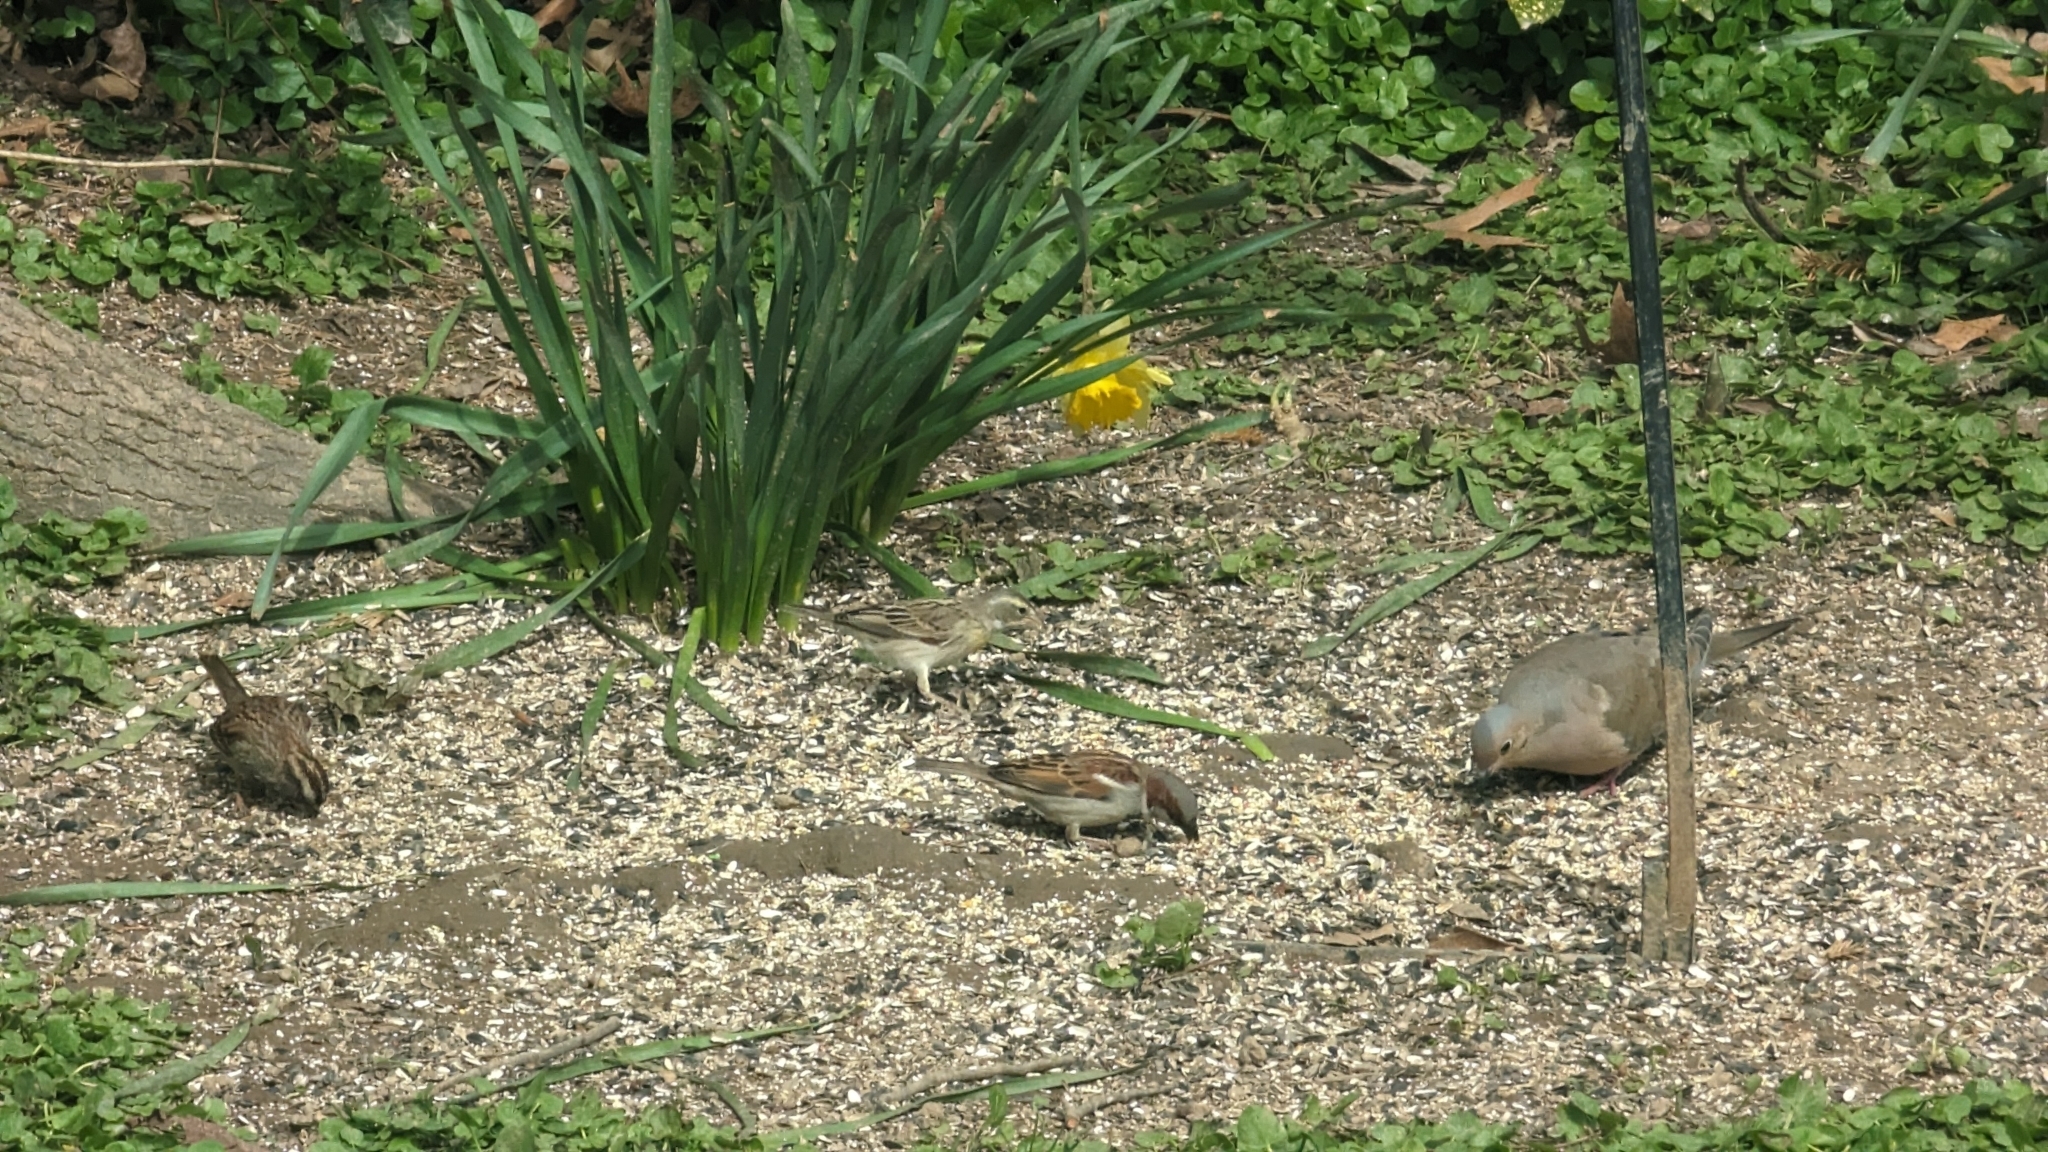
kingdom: Animalia
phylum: Chordata
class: Aves
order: Passeriformes
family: Cardinalidae
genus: Spiza
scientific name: Spiza americana
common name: Dickcissel
